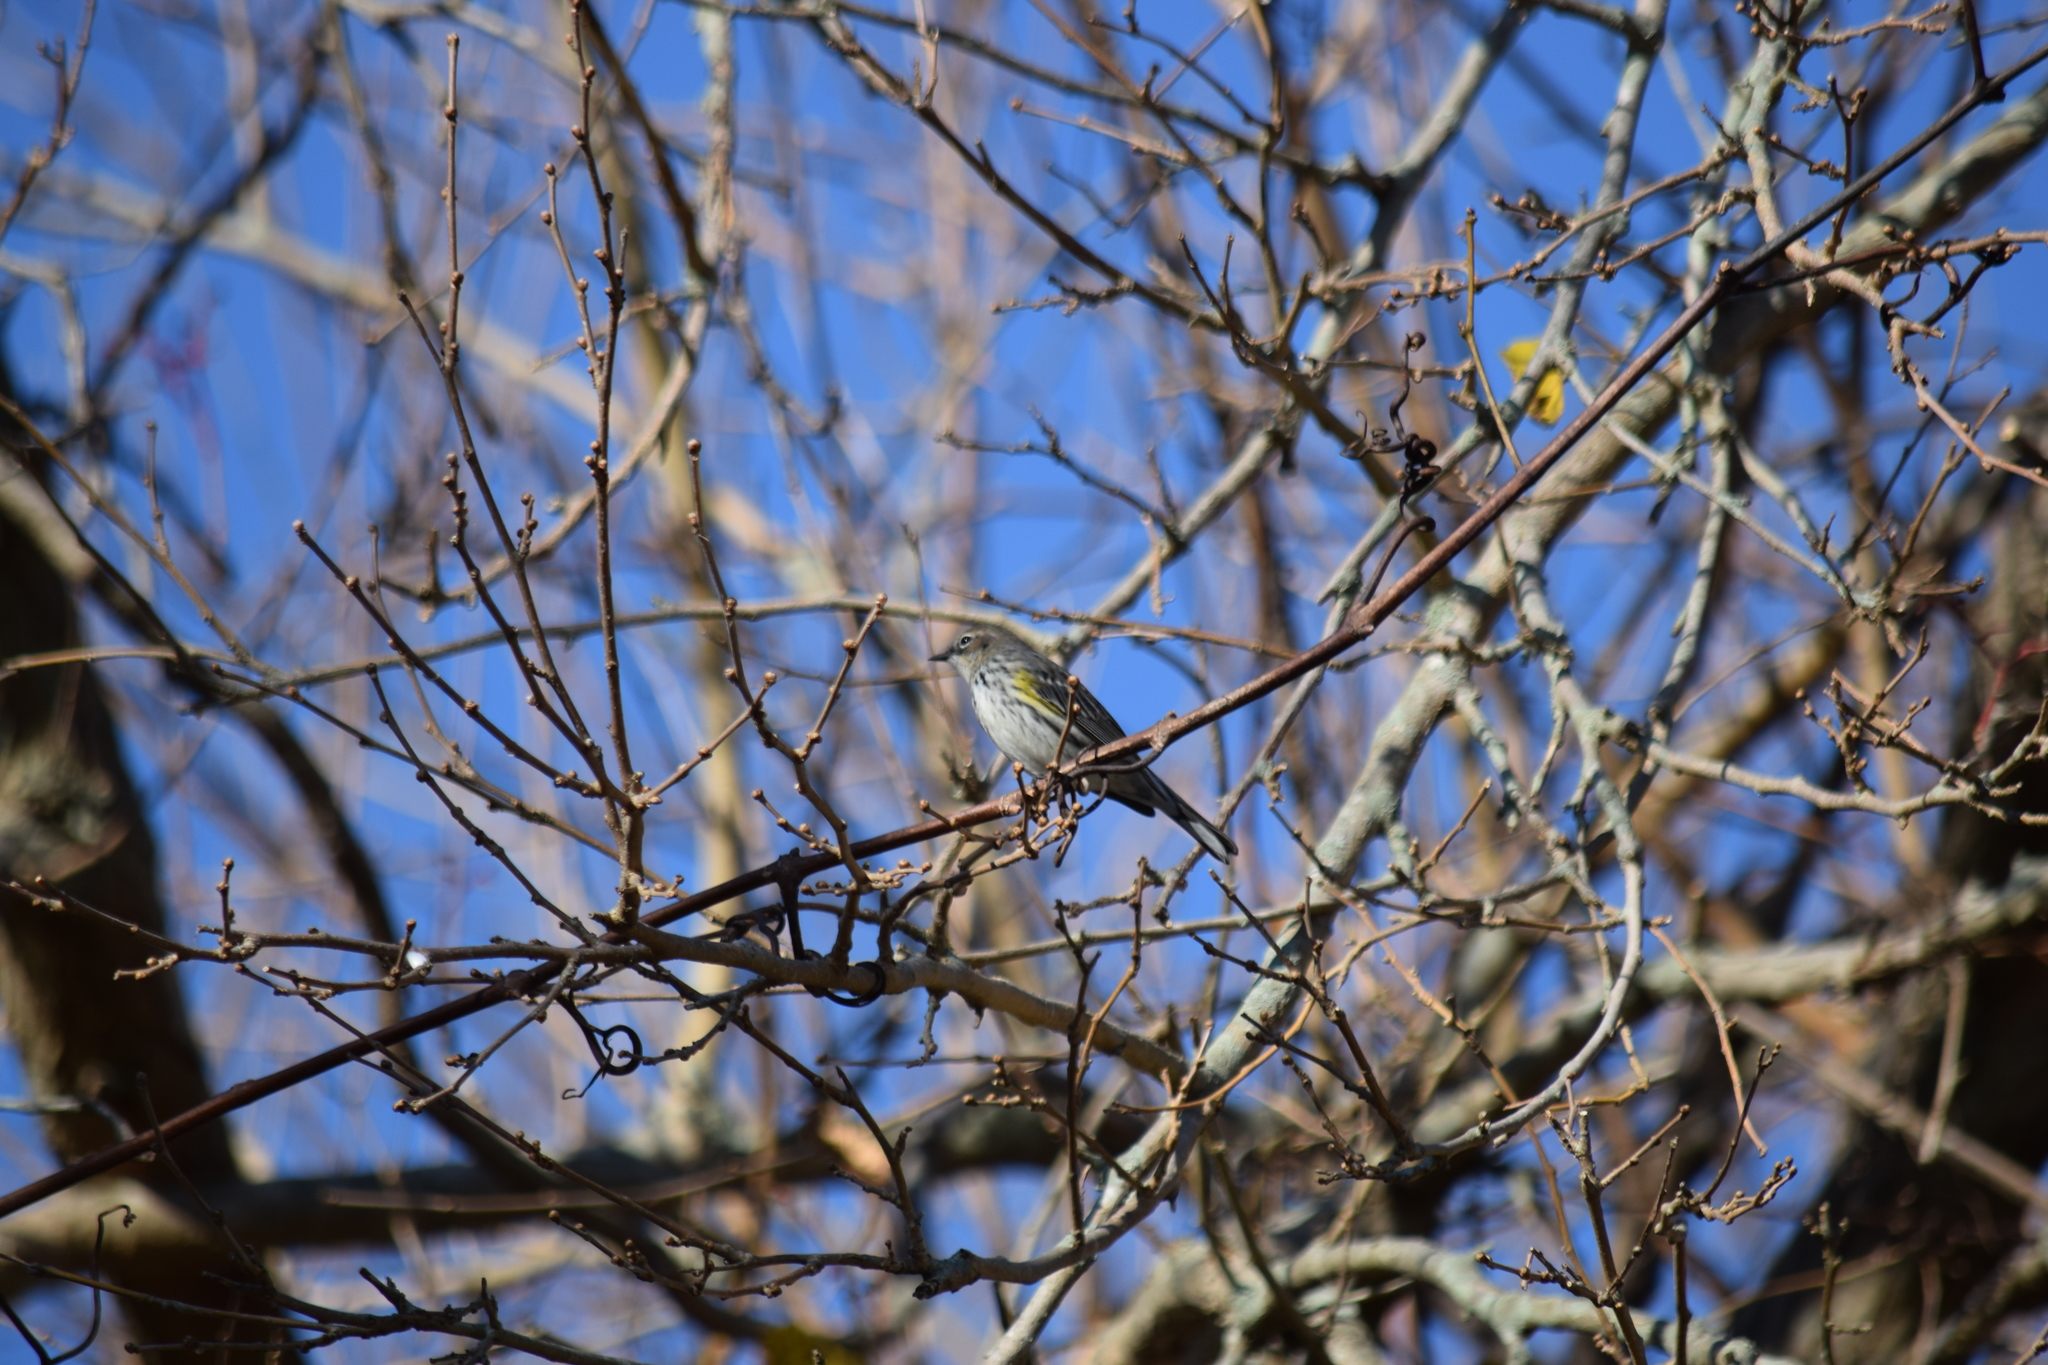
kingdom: Animalia
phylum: Chordata
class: Aves
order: Passeriformes
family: Parulidae
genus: Setophaga
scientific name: Setophaga coronata
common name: Myrtle warbler
